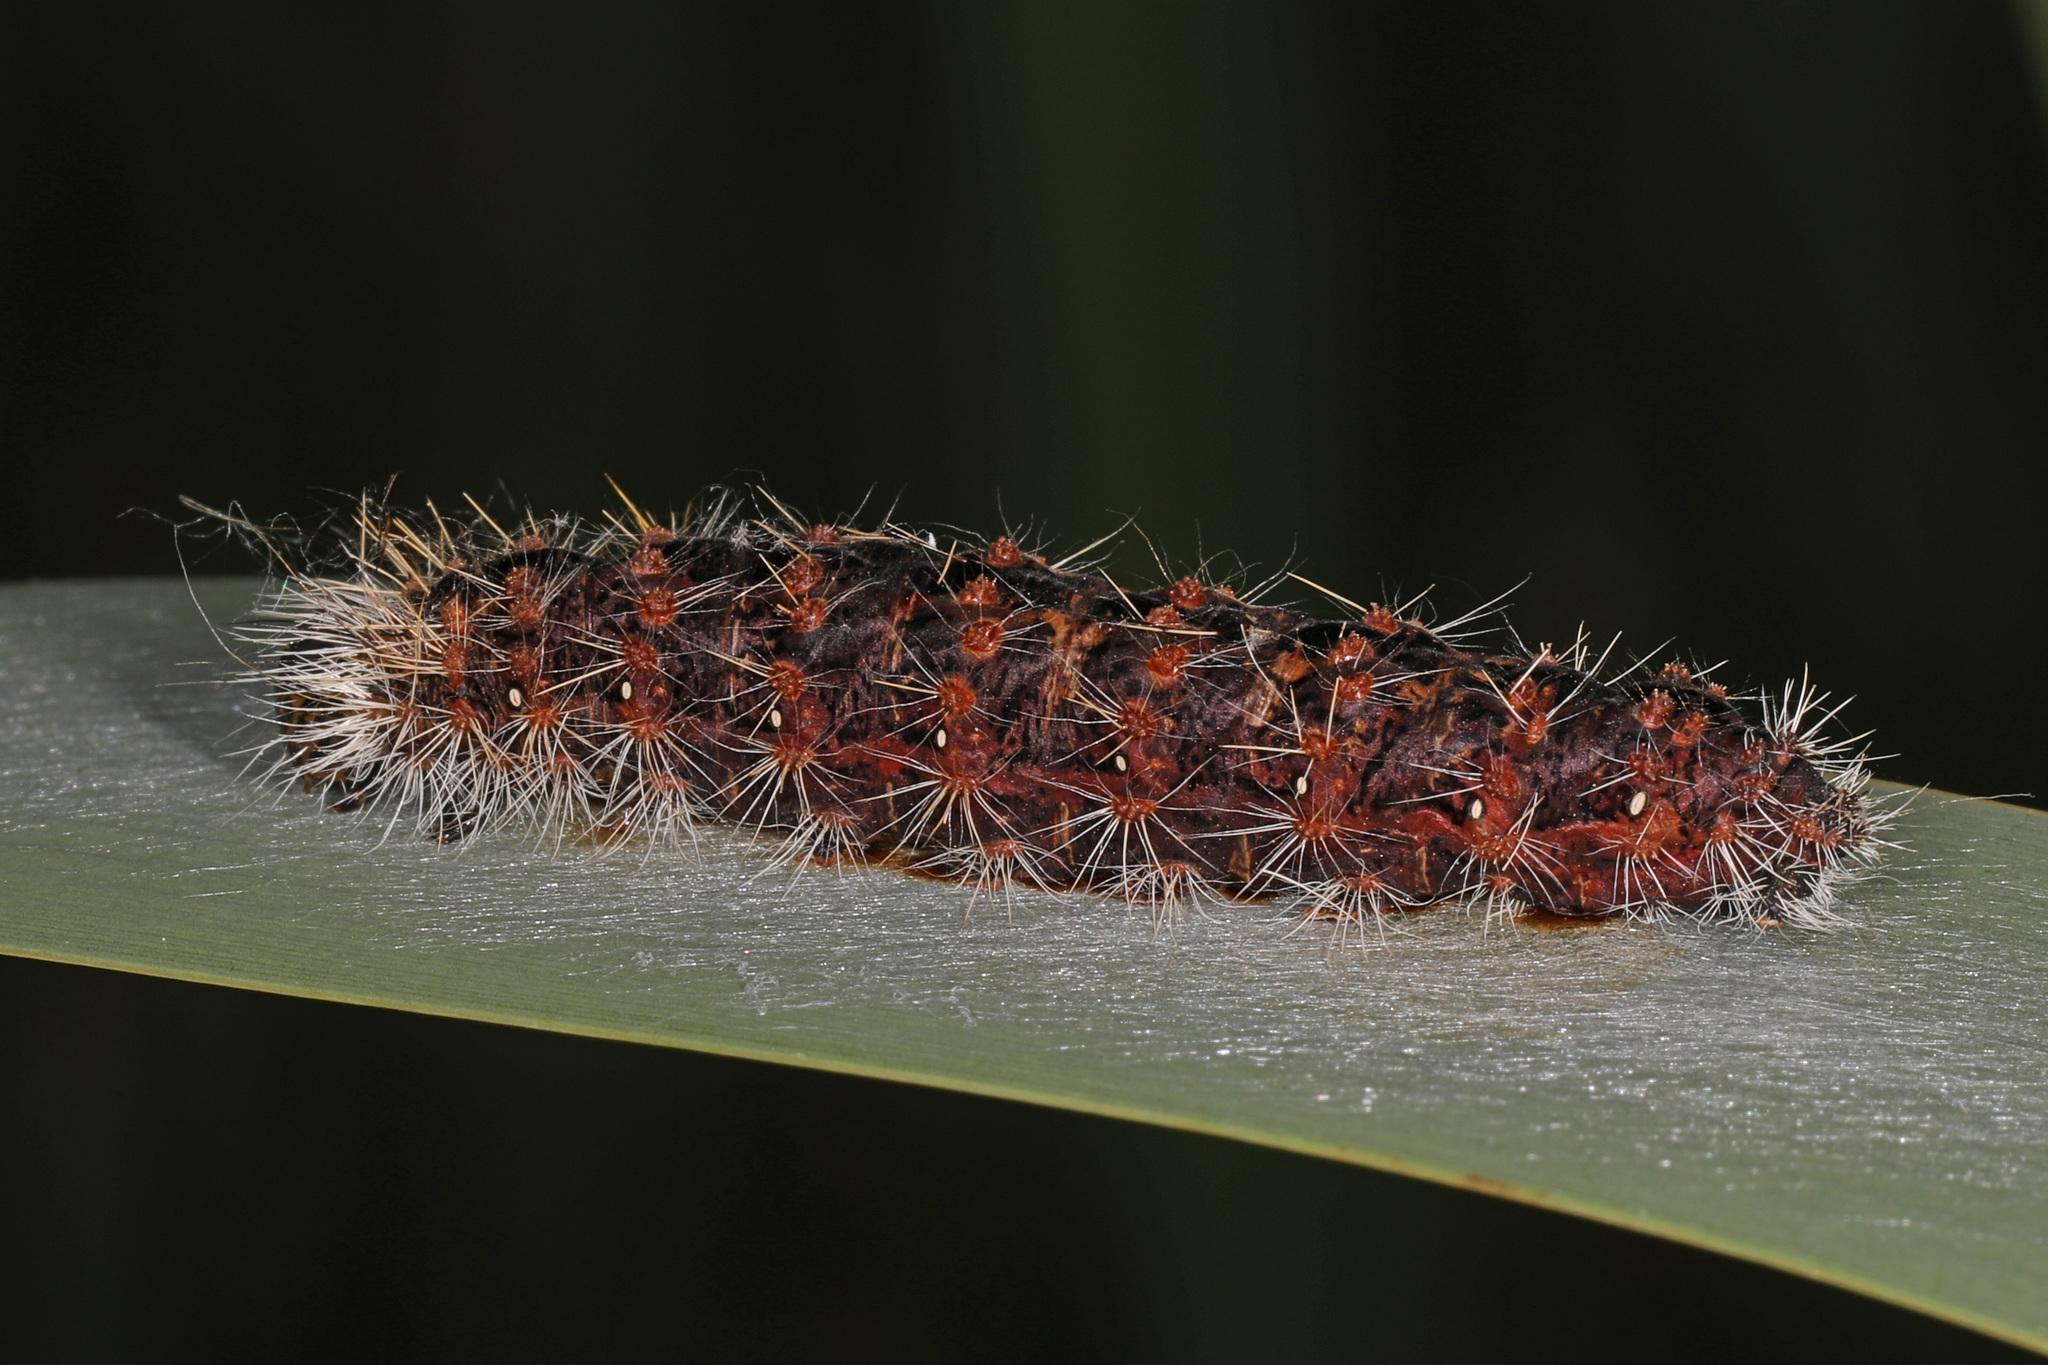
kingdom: Animalia
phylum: Arthropoda
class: Insecta
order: Lepidoptera
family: Noctuidae
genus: Acronicta
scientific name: Acronicta insularis
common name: Henry's marsh moth
